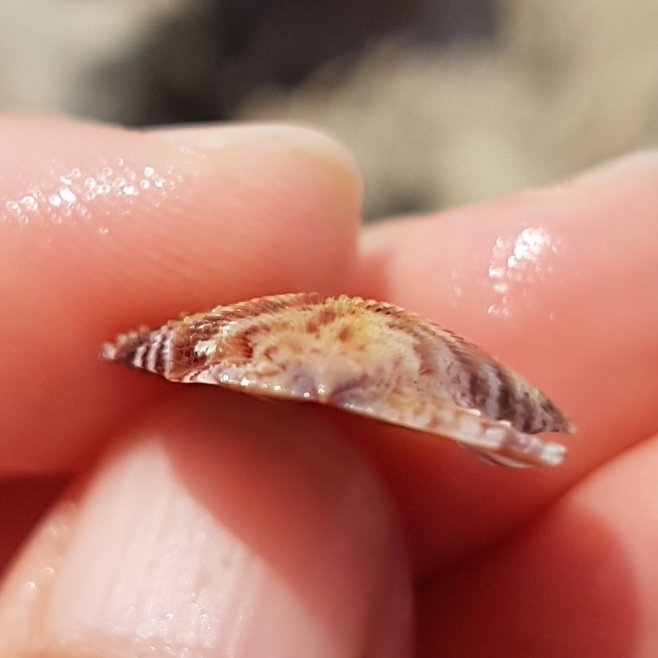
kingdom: Animalia
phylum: Mollusca
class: Bivalvia
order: Pectinida
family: Pectinidae
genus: Mimachlamys
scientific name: Mimachlamys varia
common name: Variegated scallop
